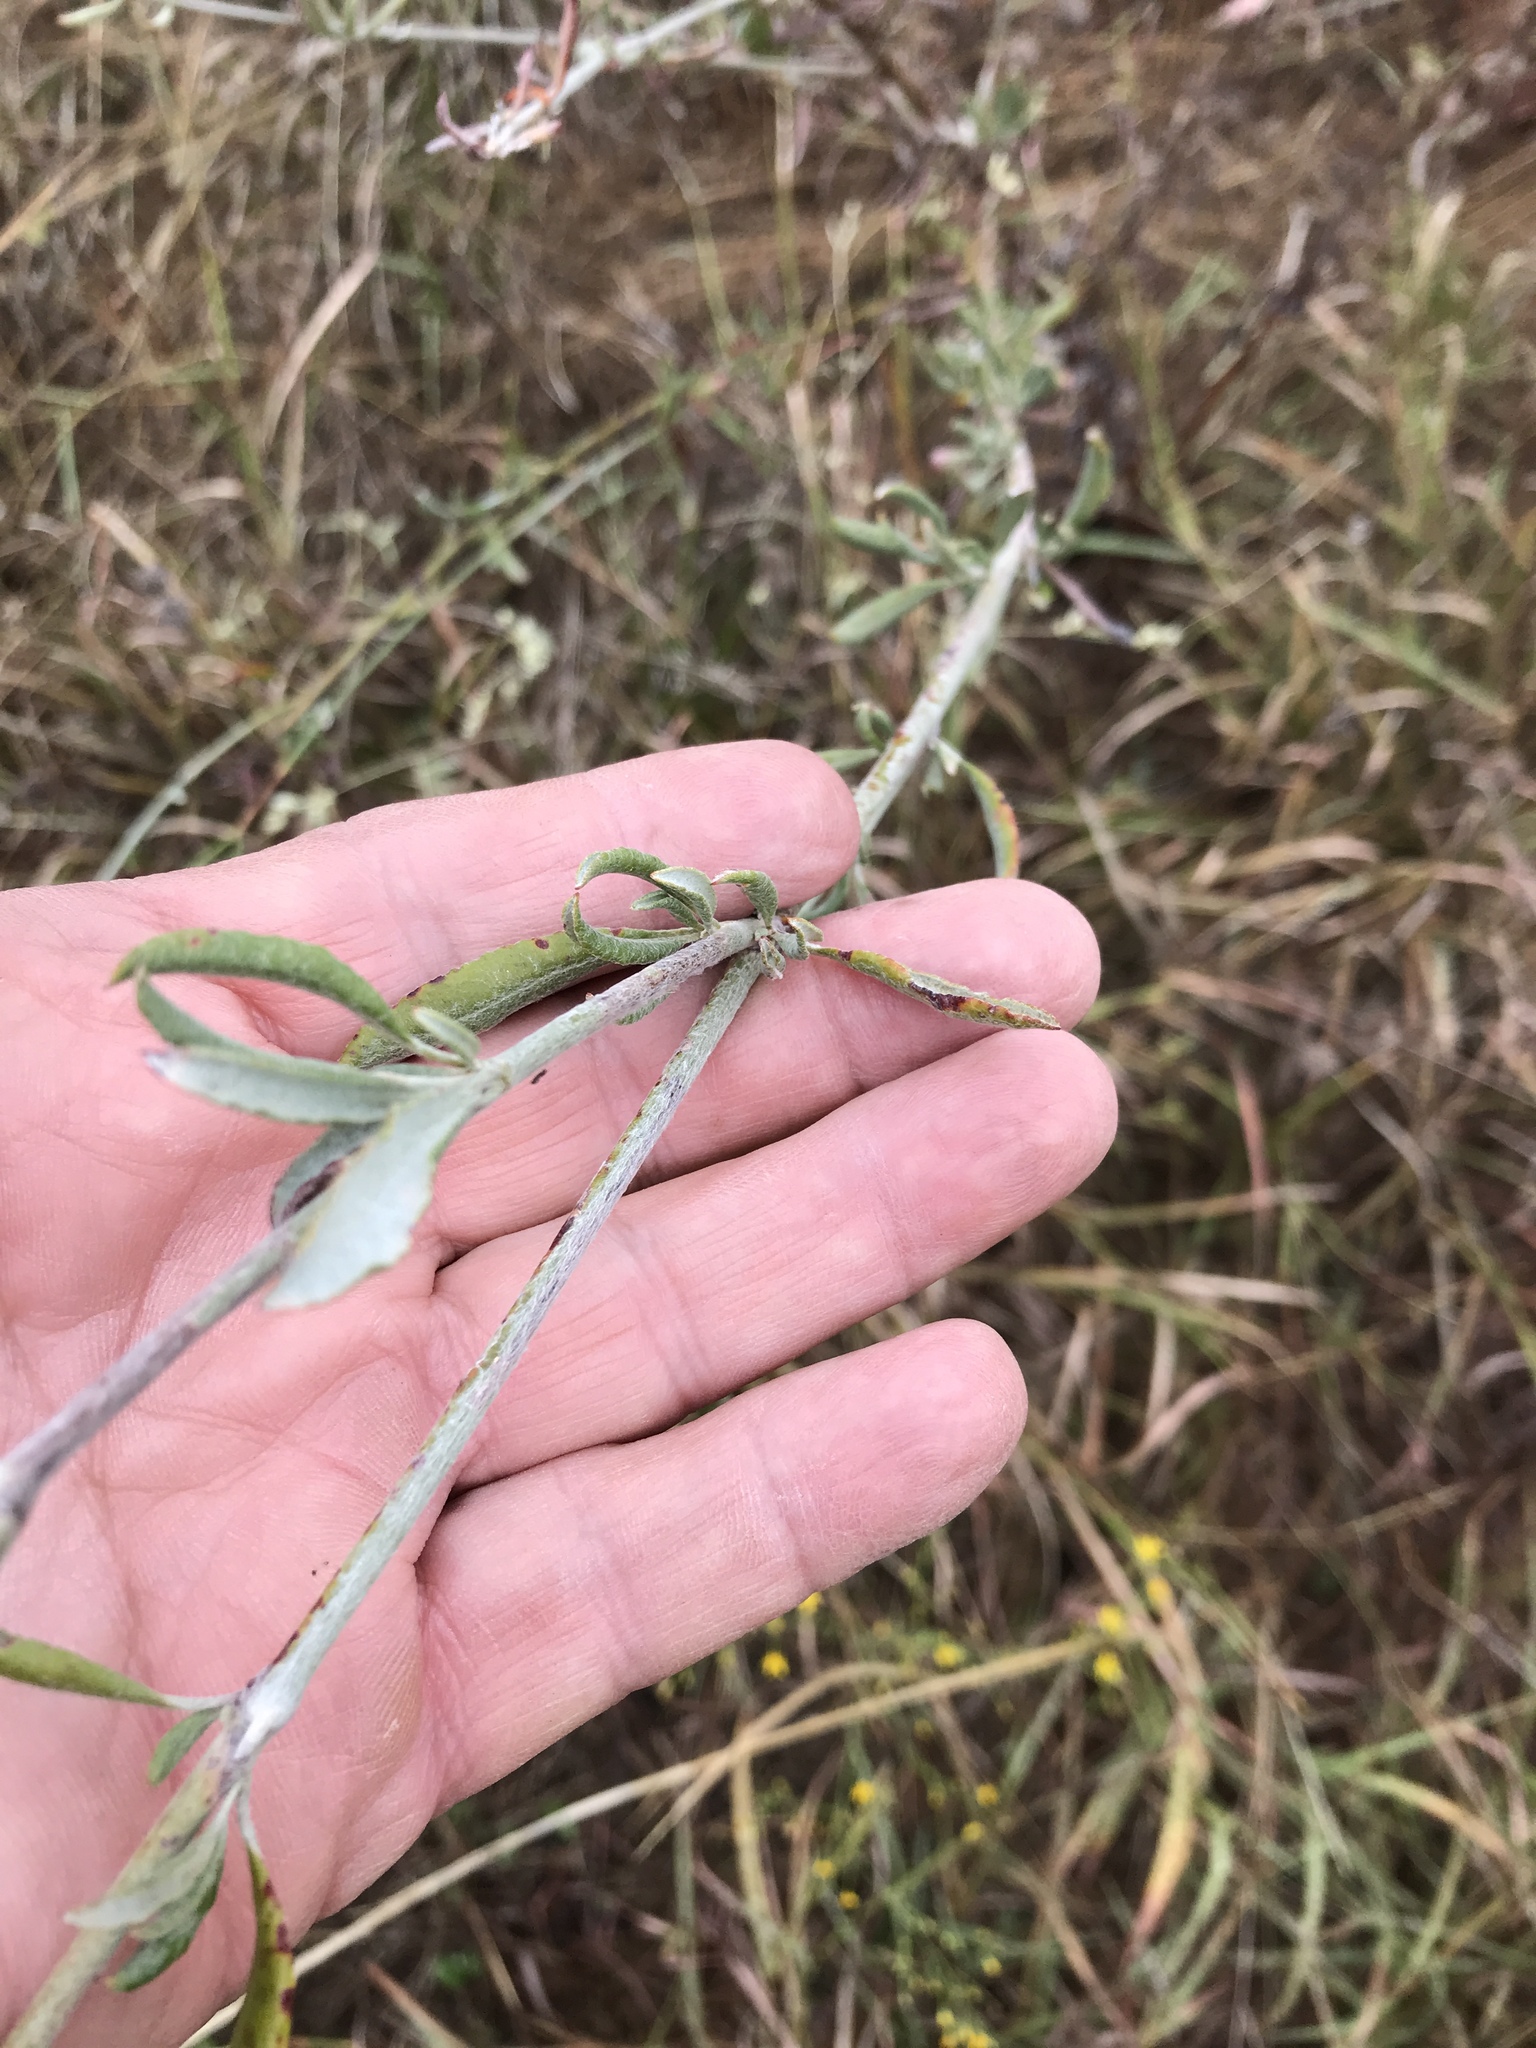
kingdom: Plantae
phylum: Tracheophyta
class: Magnoliopsida
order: Caryophyllales
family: Polygonaceae
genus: Eriogonum
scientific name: Eriogonum annuum
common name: Annual wild buckwheat
